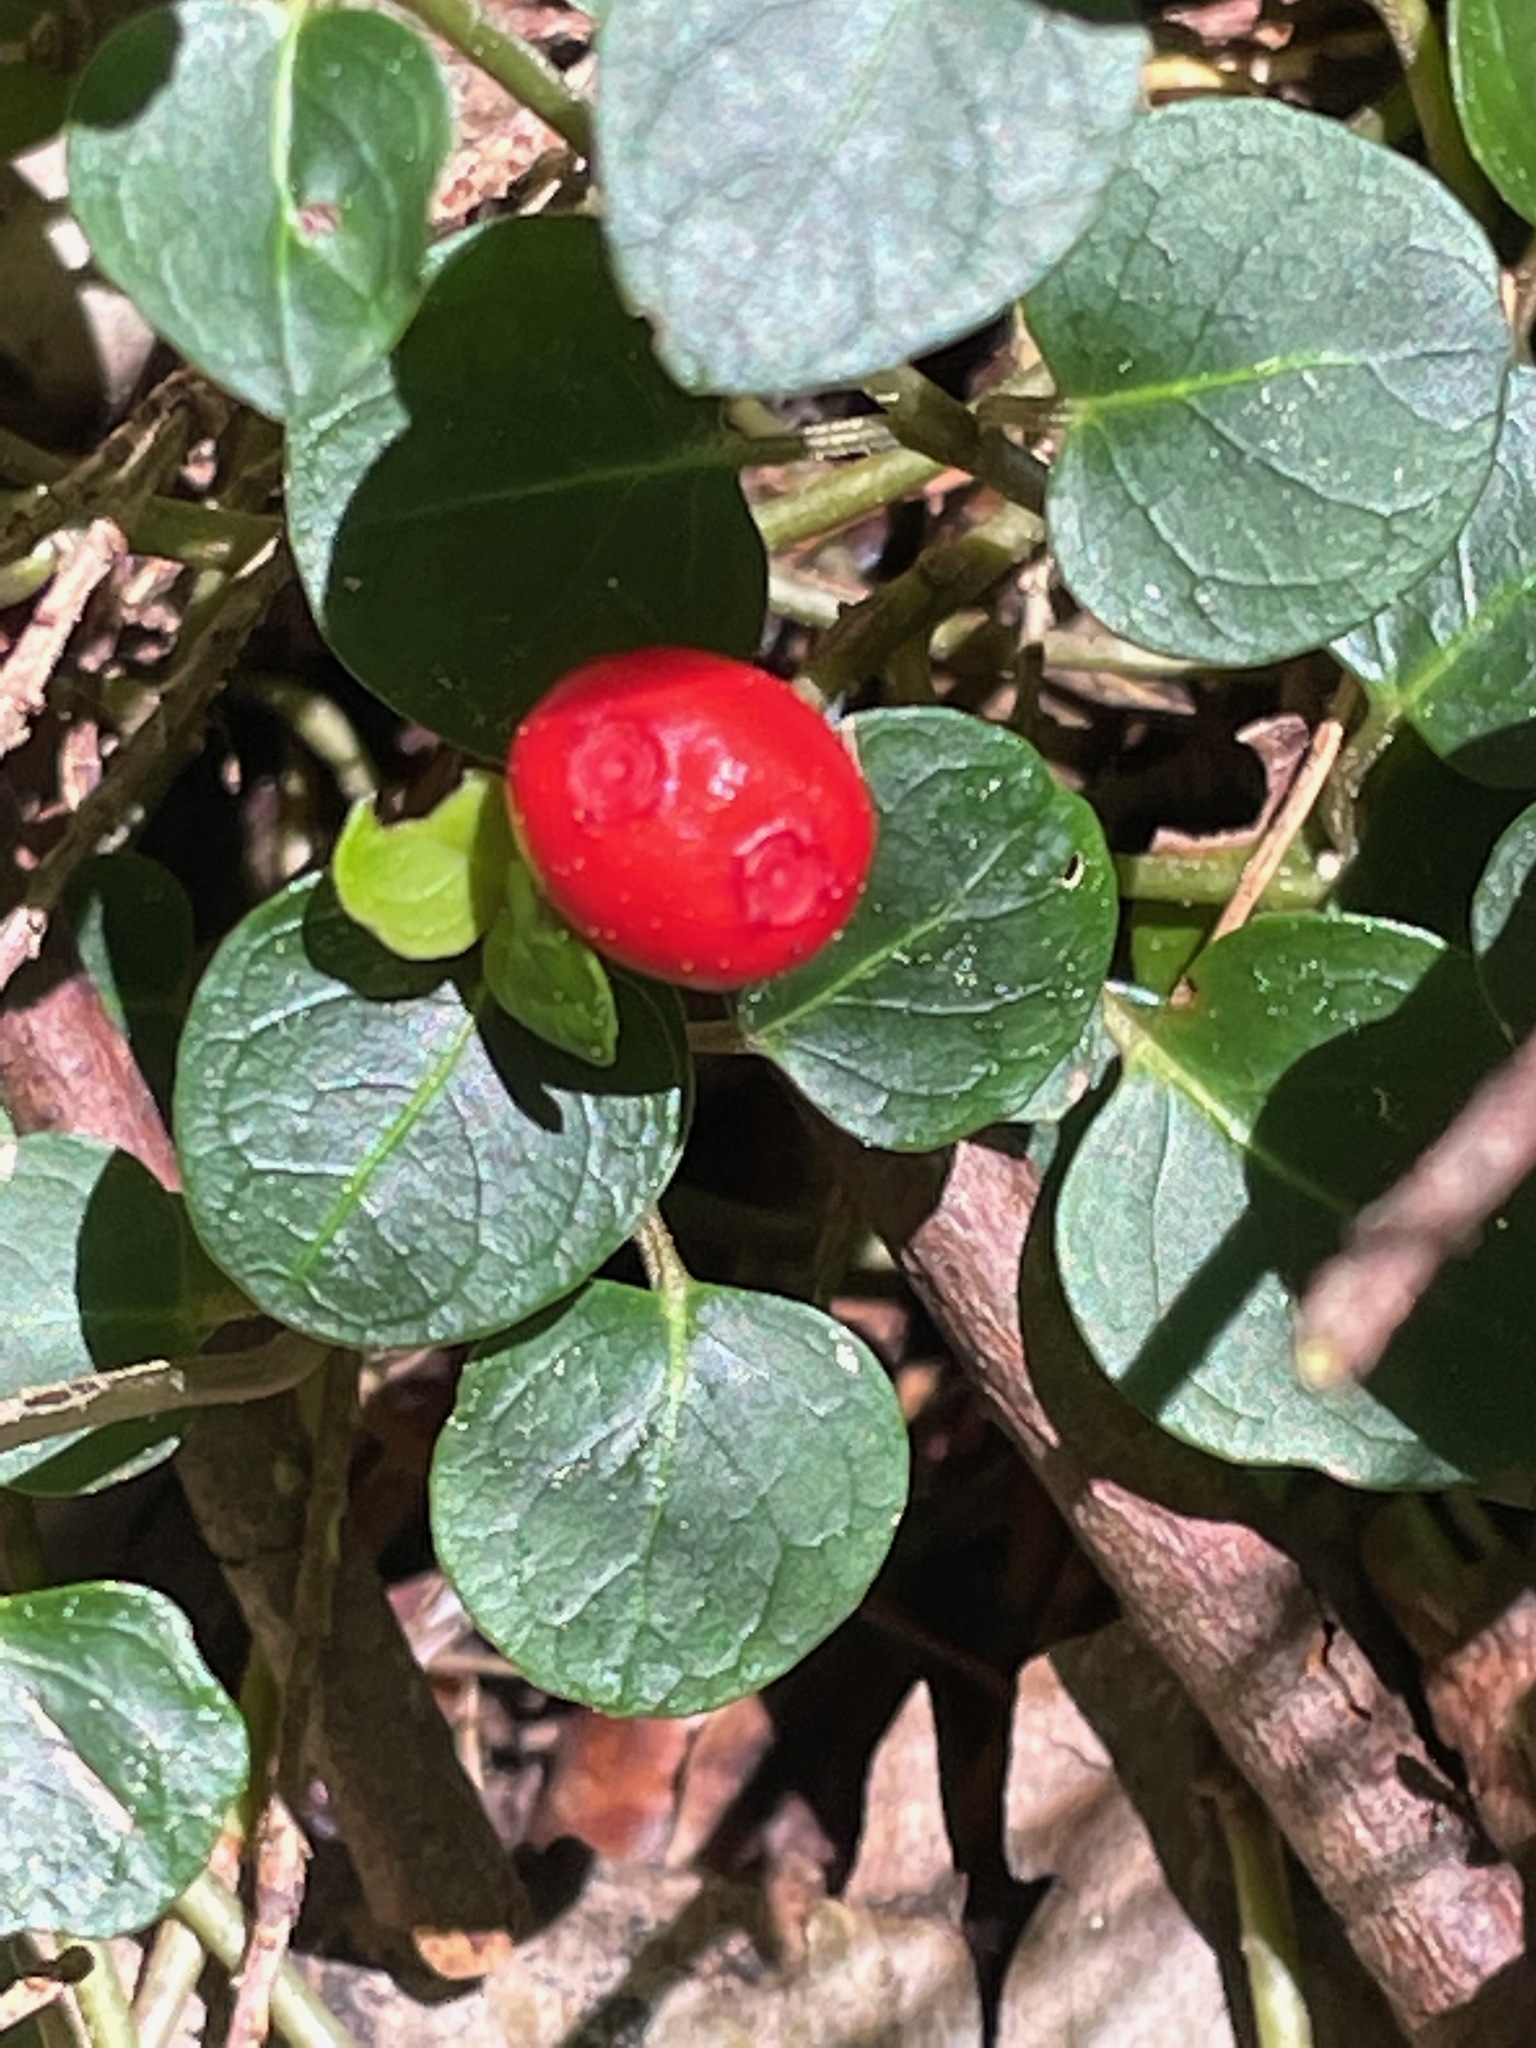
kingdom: Plantae
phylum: Tracheophyta
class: Magnoliopsida
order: Gentianales
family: Rubiaceae
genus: Mitchella
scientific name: Mitchella repens
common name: Partridge-berry
